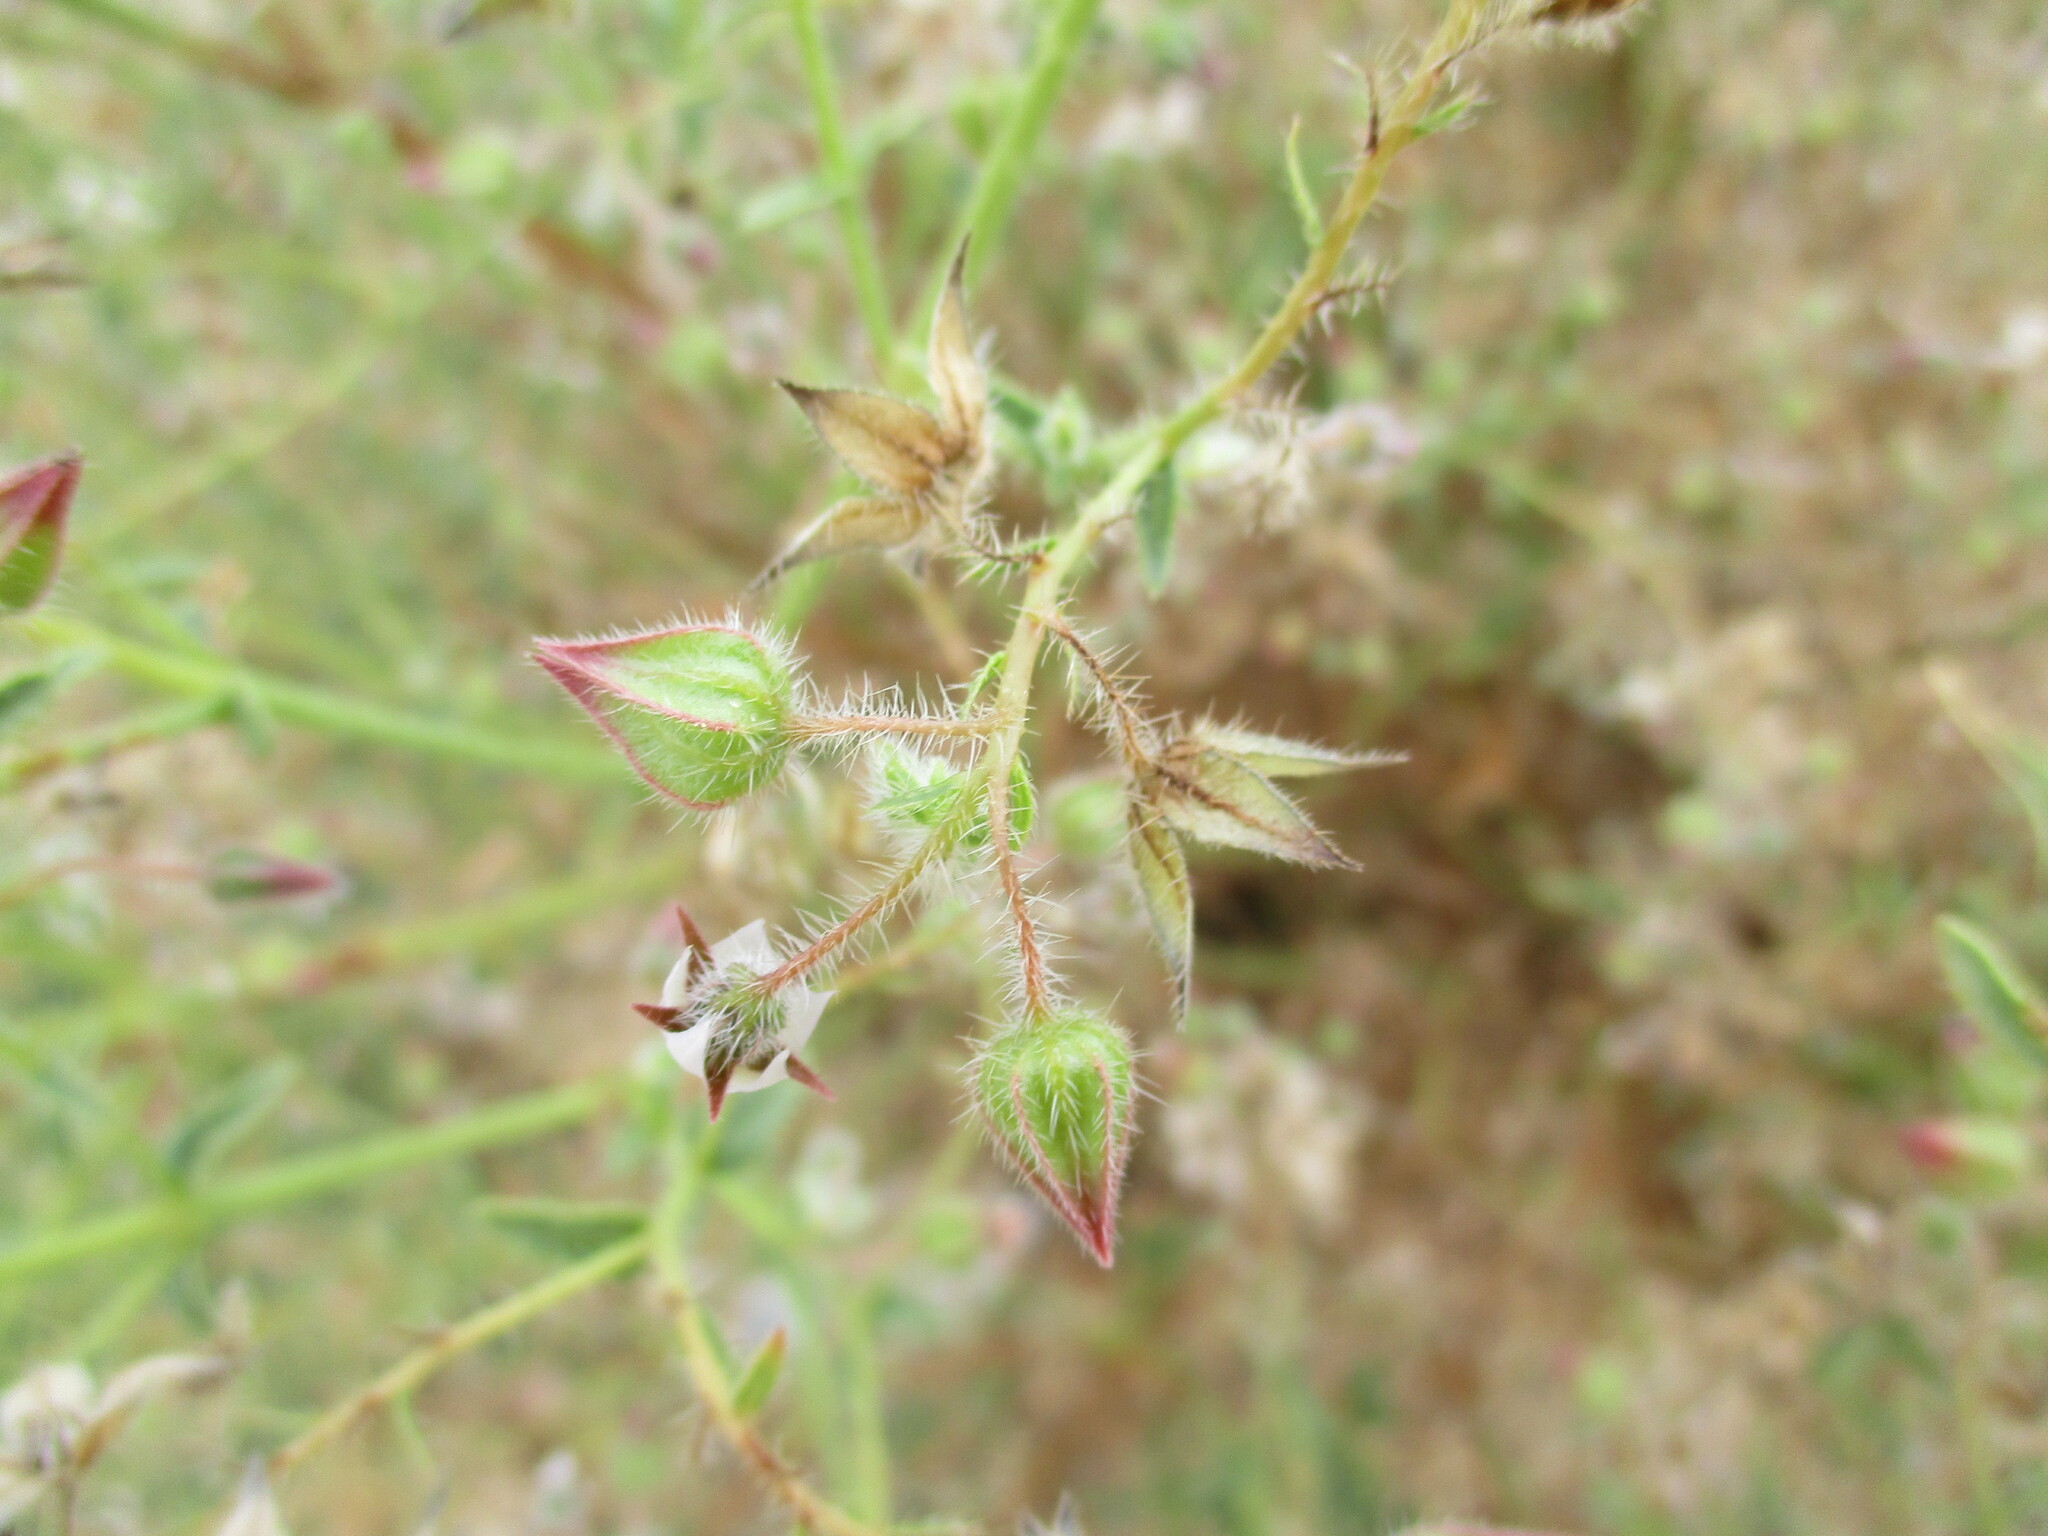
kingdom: Plantae
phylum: Tracheophyta
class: Magnoliopsida
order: Boraginales
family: Boraginaceae
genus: Trichodesma
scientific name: Trichodesma africanum
